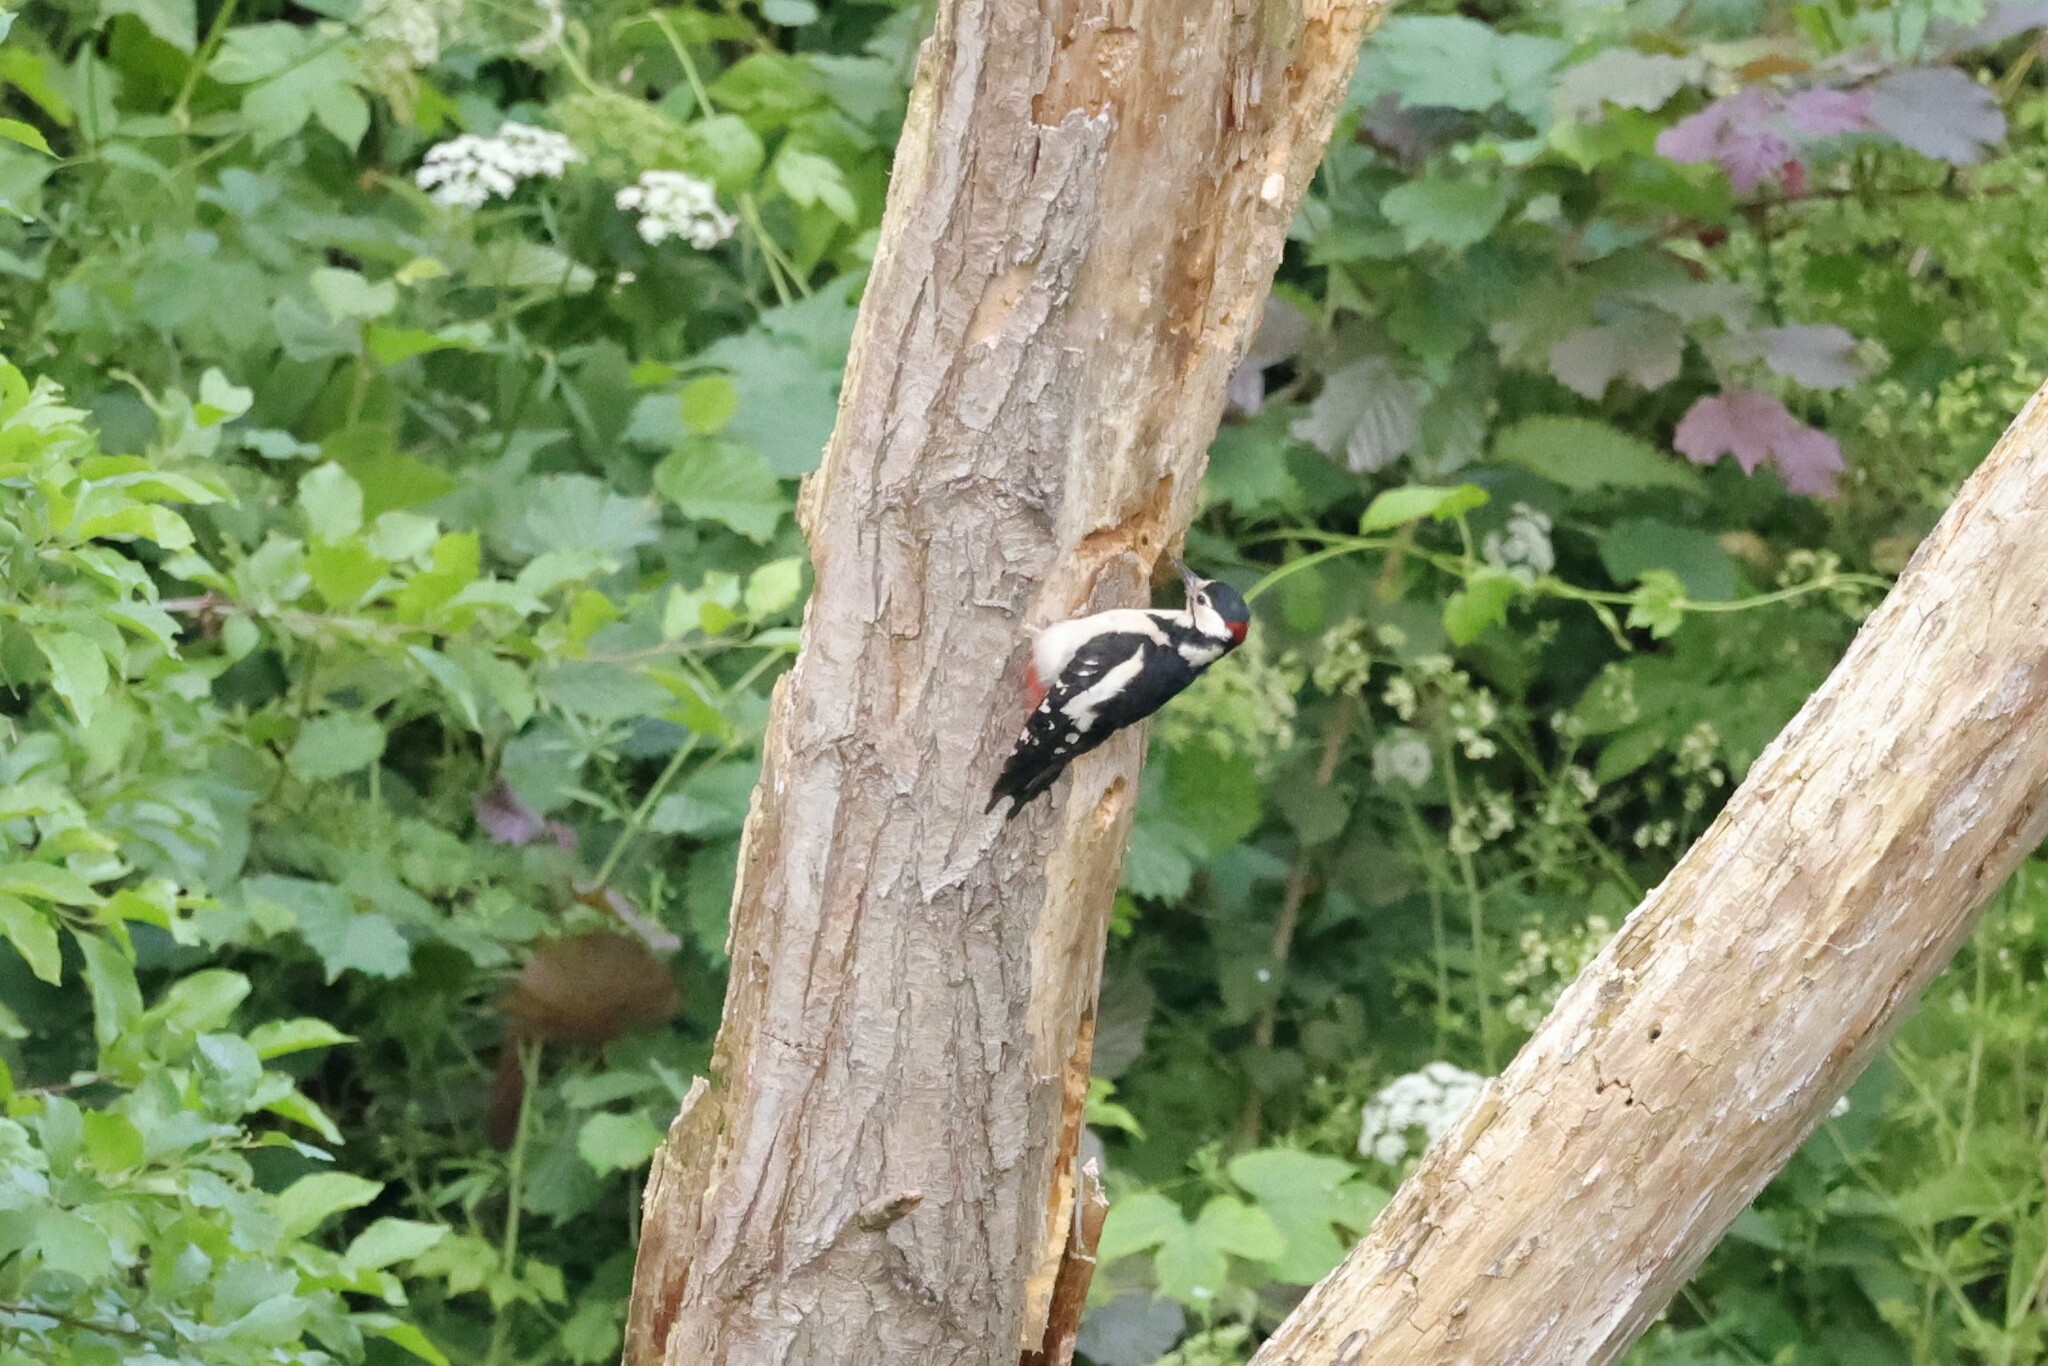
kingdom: Animalia
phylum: Chordata
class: Aves
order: Piciformes
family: Picidae
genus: Dendrocopos
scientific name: Dendrocopos major
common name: Great spotted woodpecker
